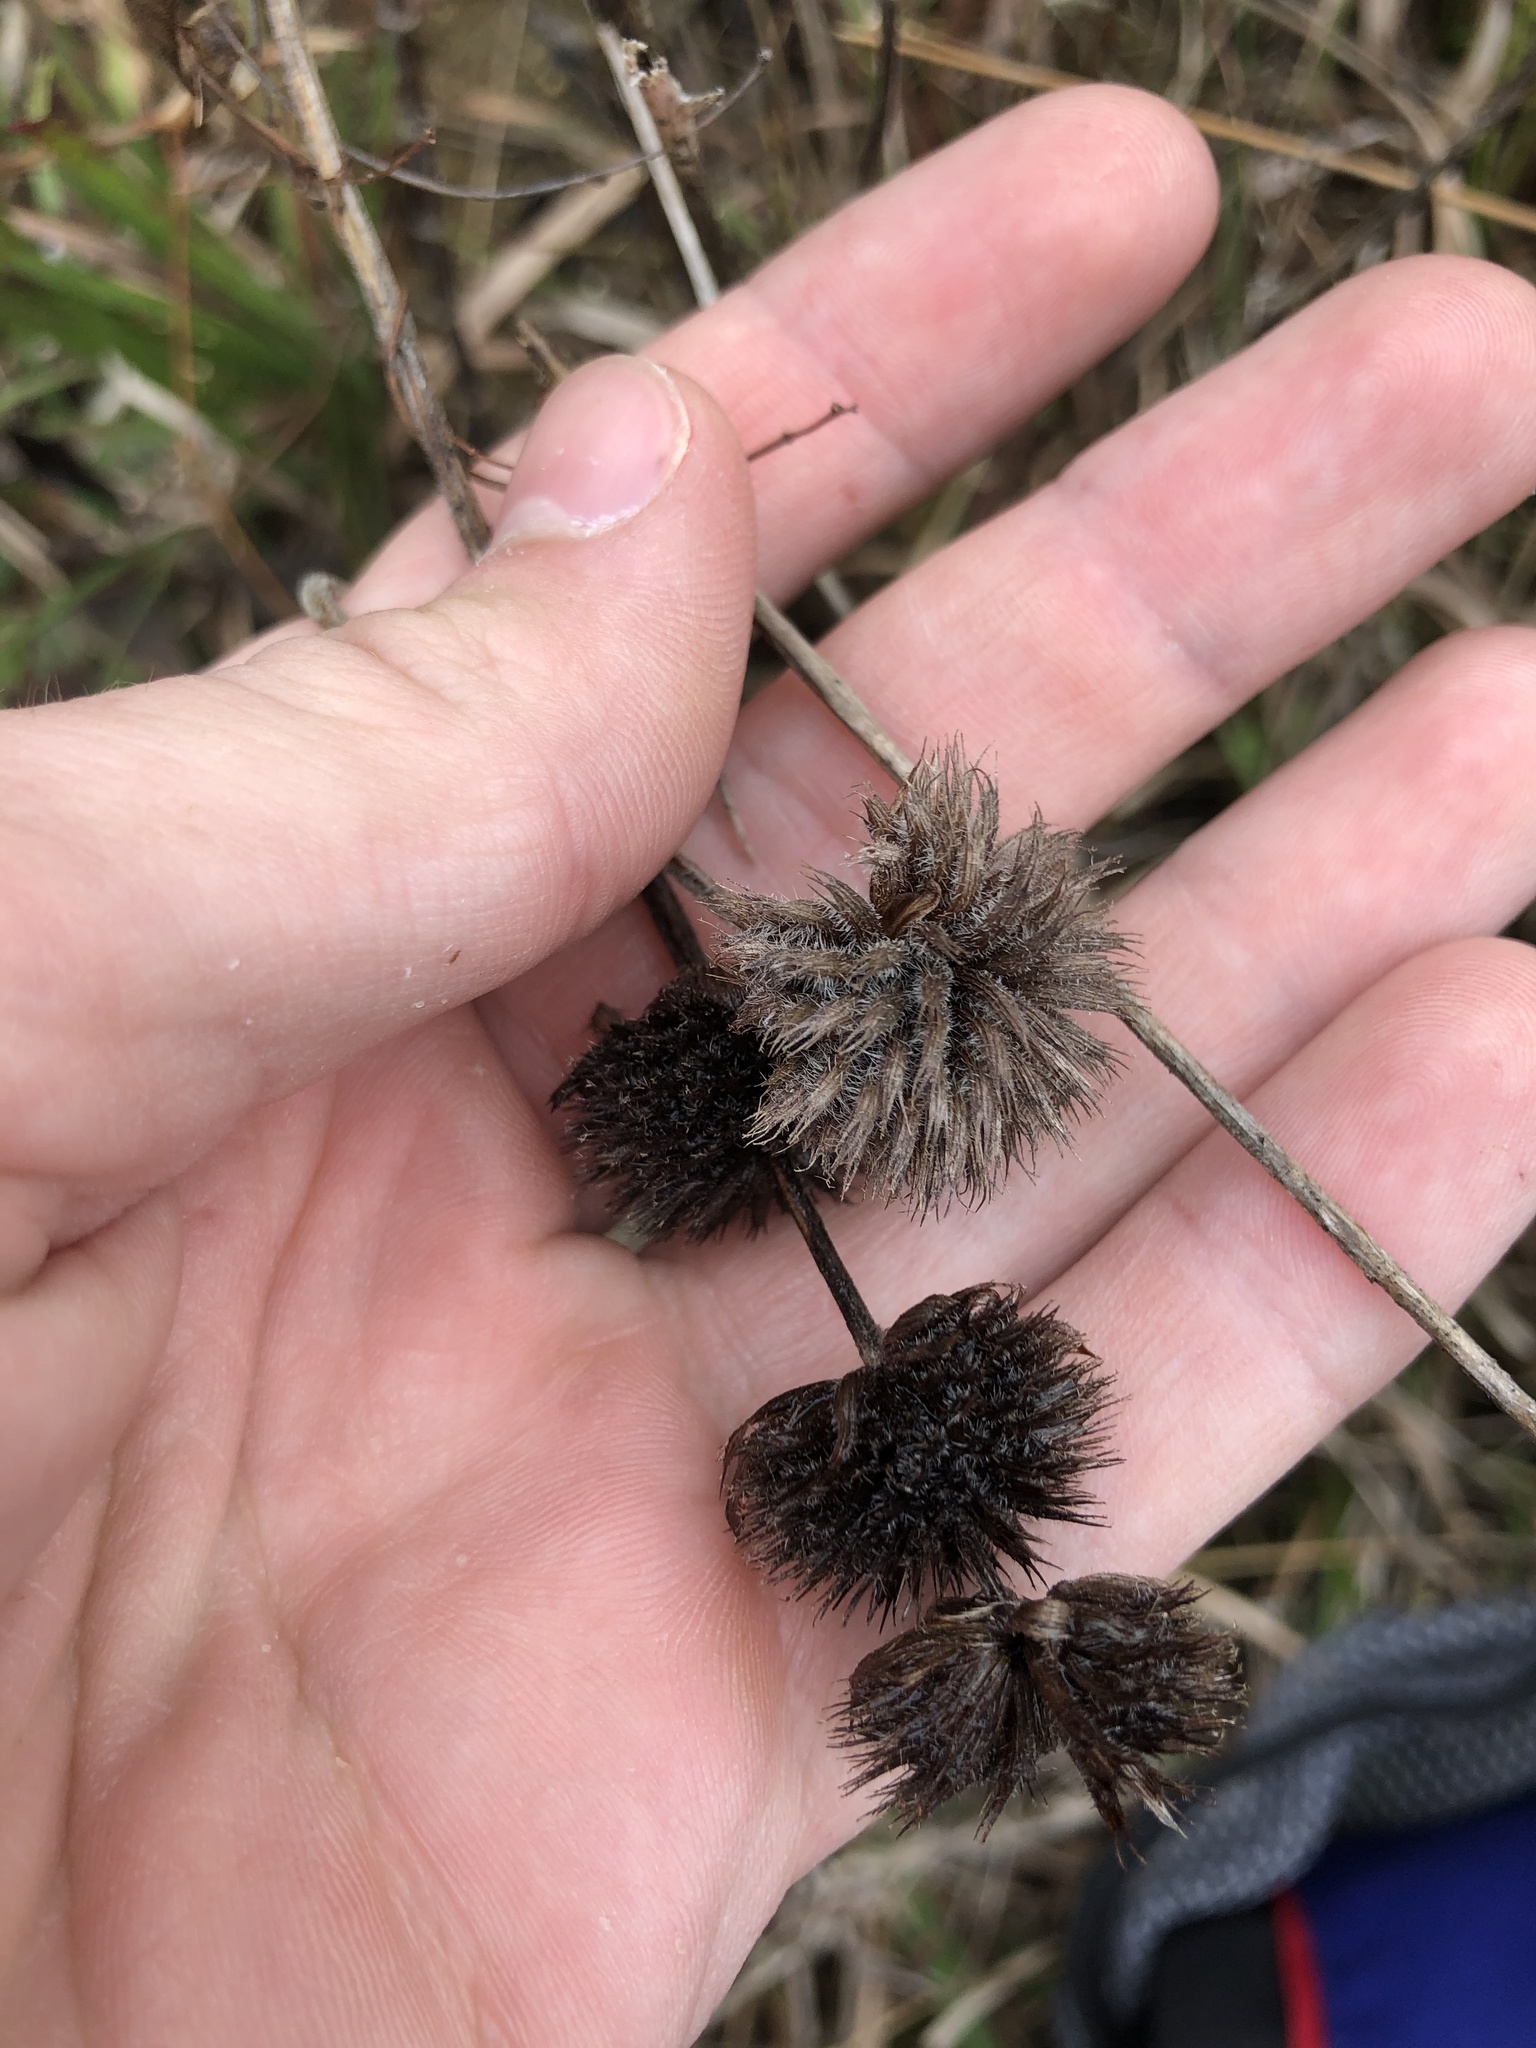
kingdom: Plantae
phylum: Tracheophyta
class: Magnoliopsida
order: Lamiales
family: Lamiaceae
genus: Blephilia
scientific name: Blephilia ciliata
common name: Downy blephilia
